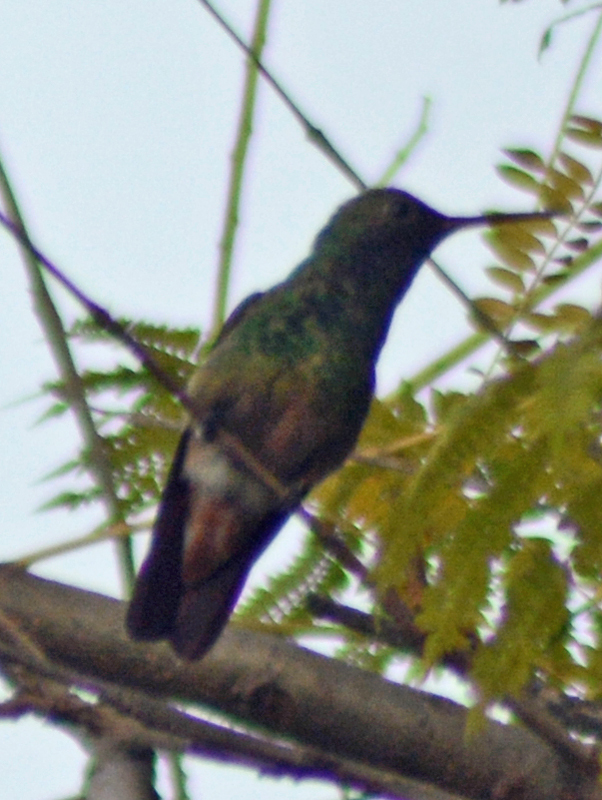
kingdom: Animalia
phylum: Chordata
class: Aves
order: Apodiformes
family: Trochilidae
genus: Saucerottia
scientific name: Saucerottia beryllina
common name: Berylline hummingbird
